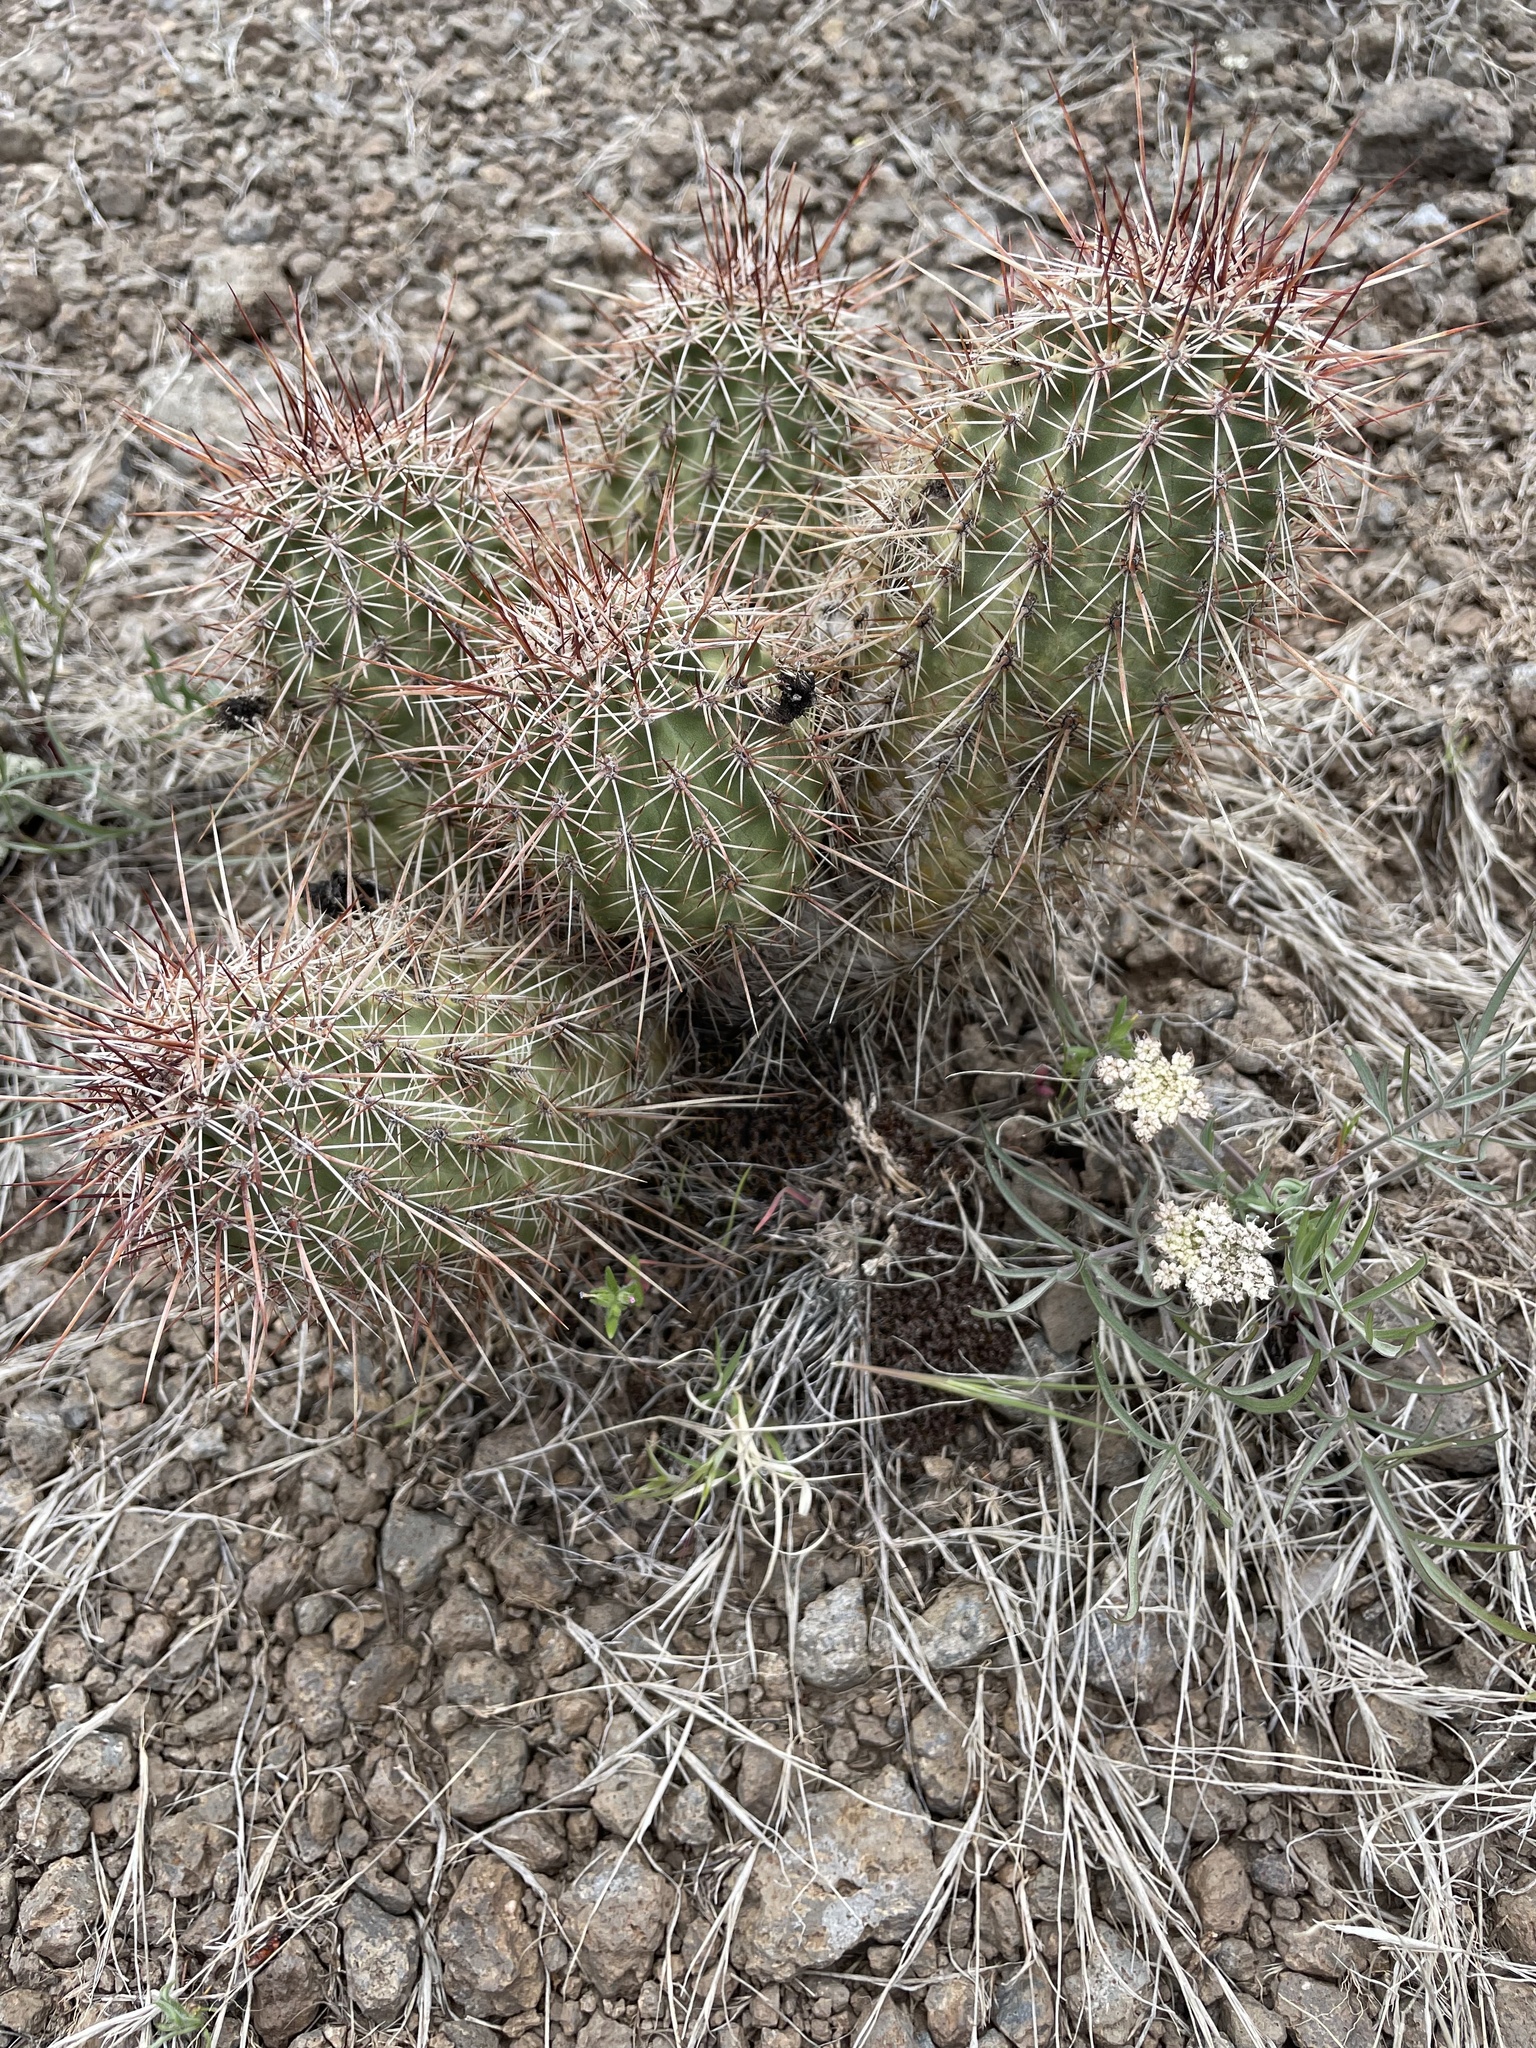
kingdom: Plantae
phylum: Tracheophyta
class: Magnoliopsida
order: Caryophyllales
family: Cactaceae
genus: Echinocereus
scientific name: Echinocereus fasciculatus
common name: Bundle hedgehog
